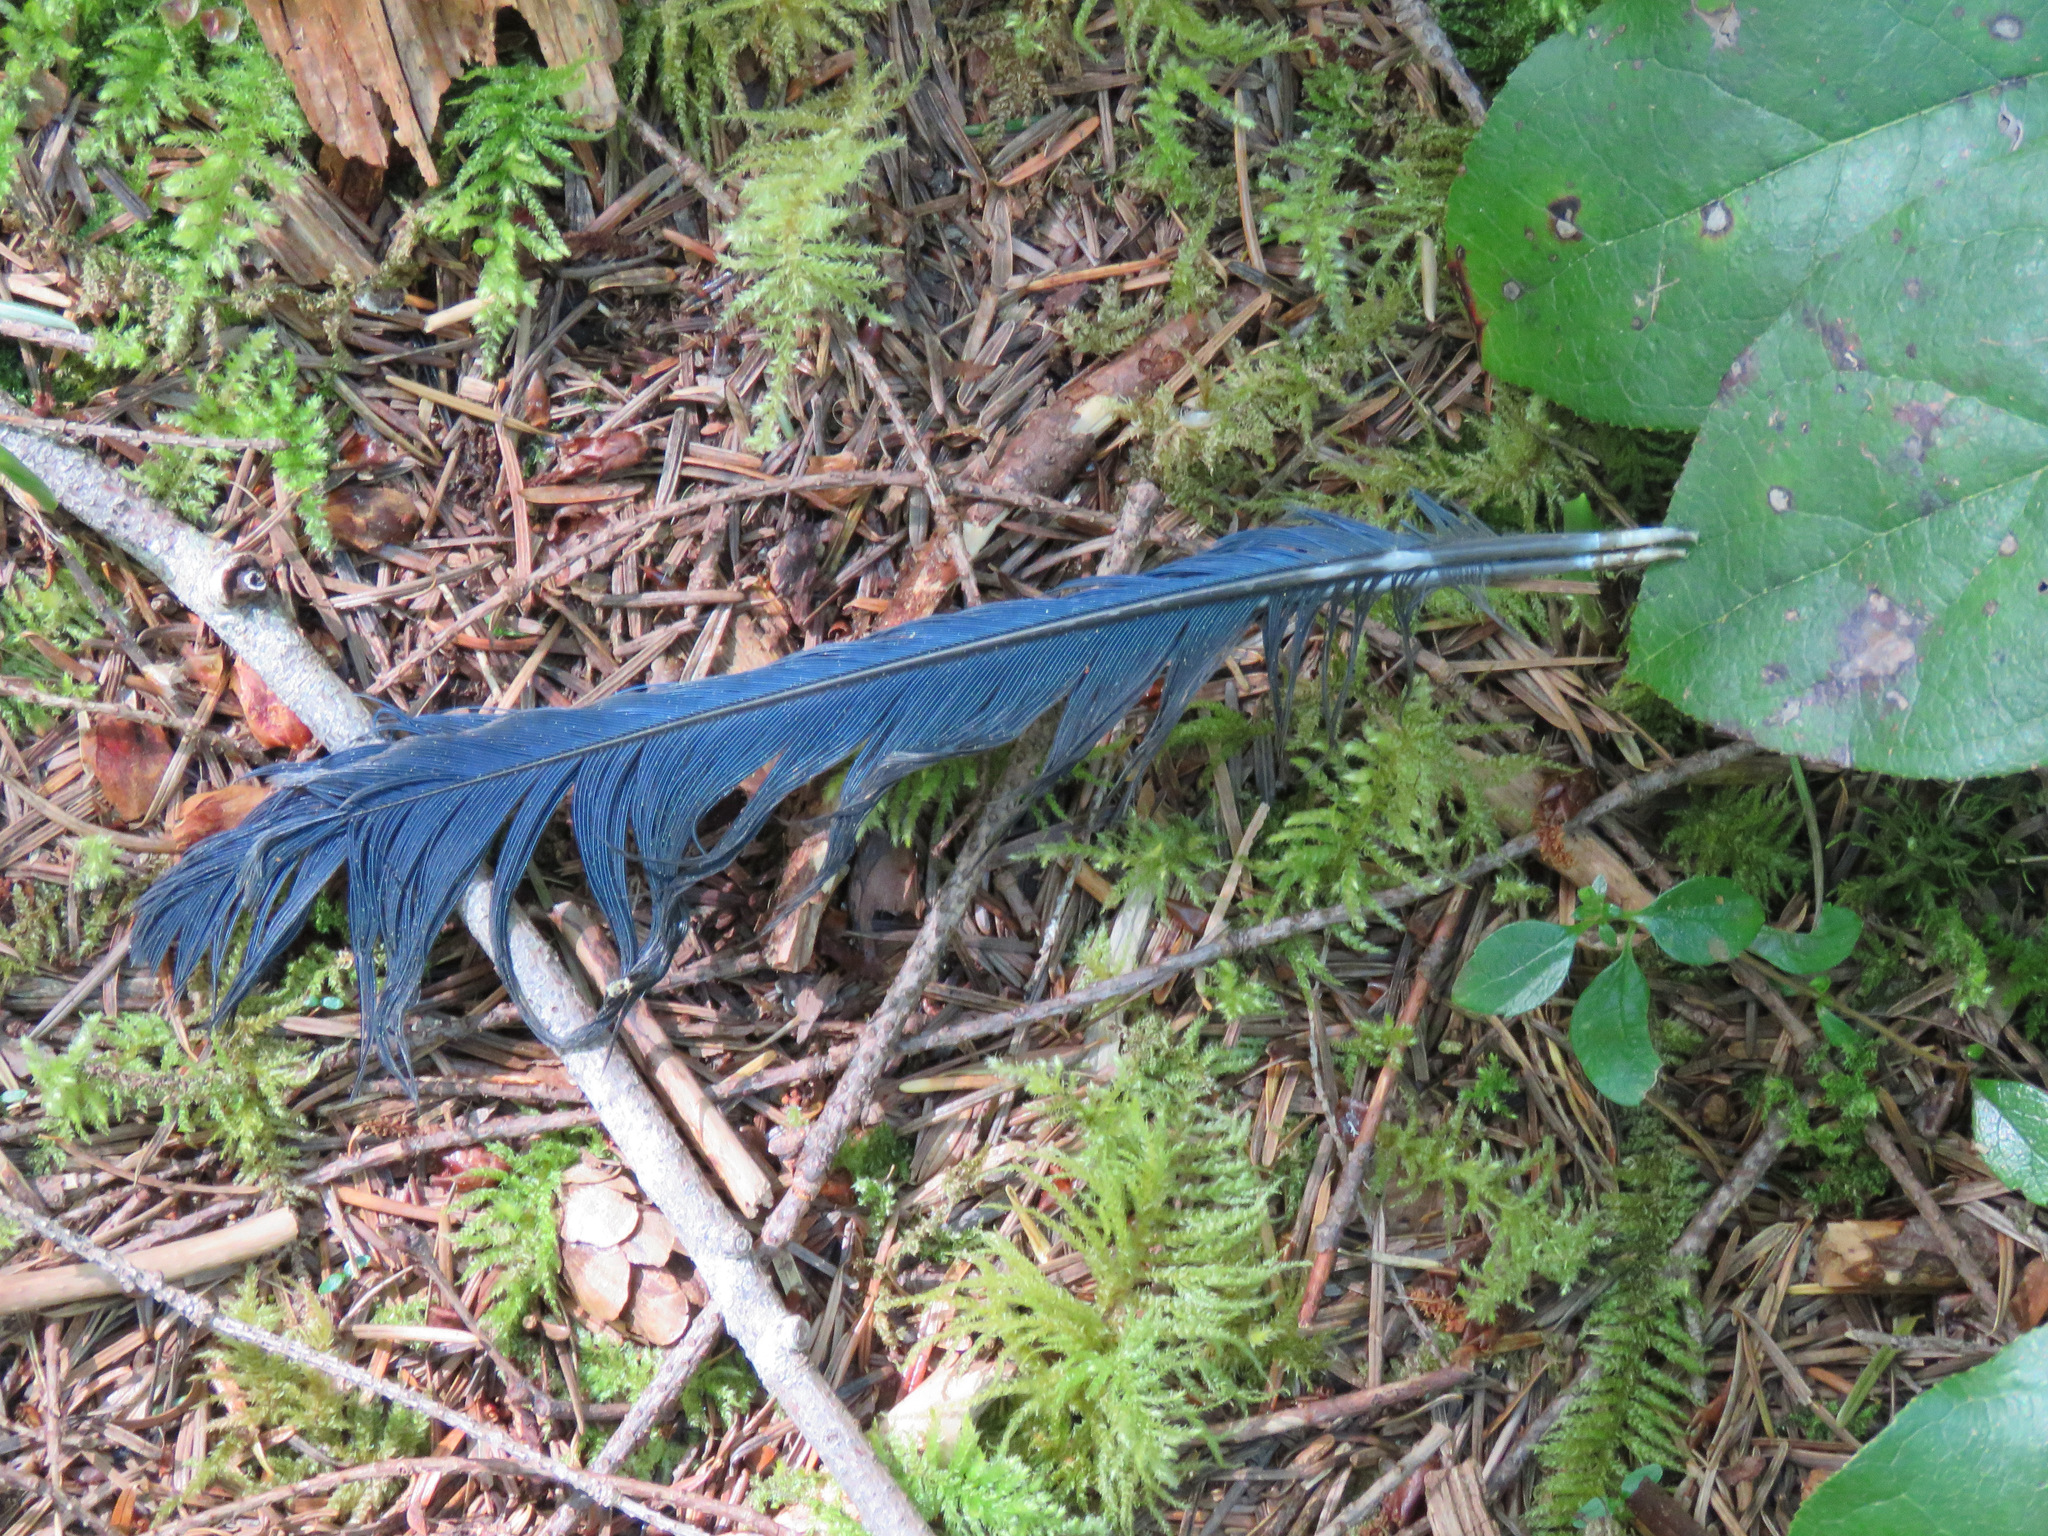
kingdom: Animalia
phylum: Chordata
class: Aves
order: Passeriformes
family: Corvidae
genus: Cyanocitta
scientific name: Cyanocitta stelleri
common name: Steller's jay
